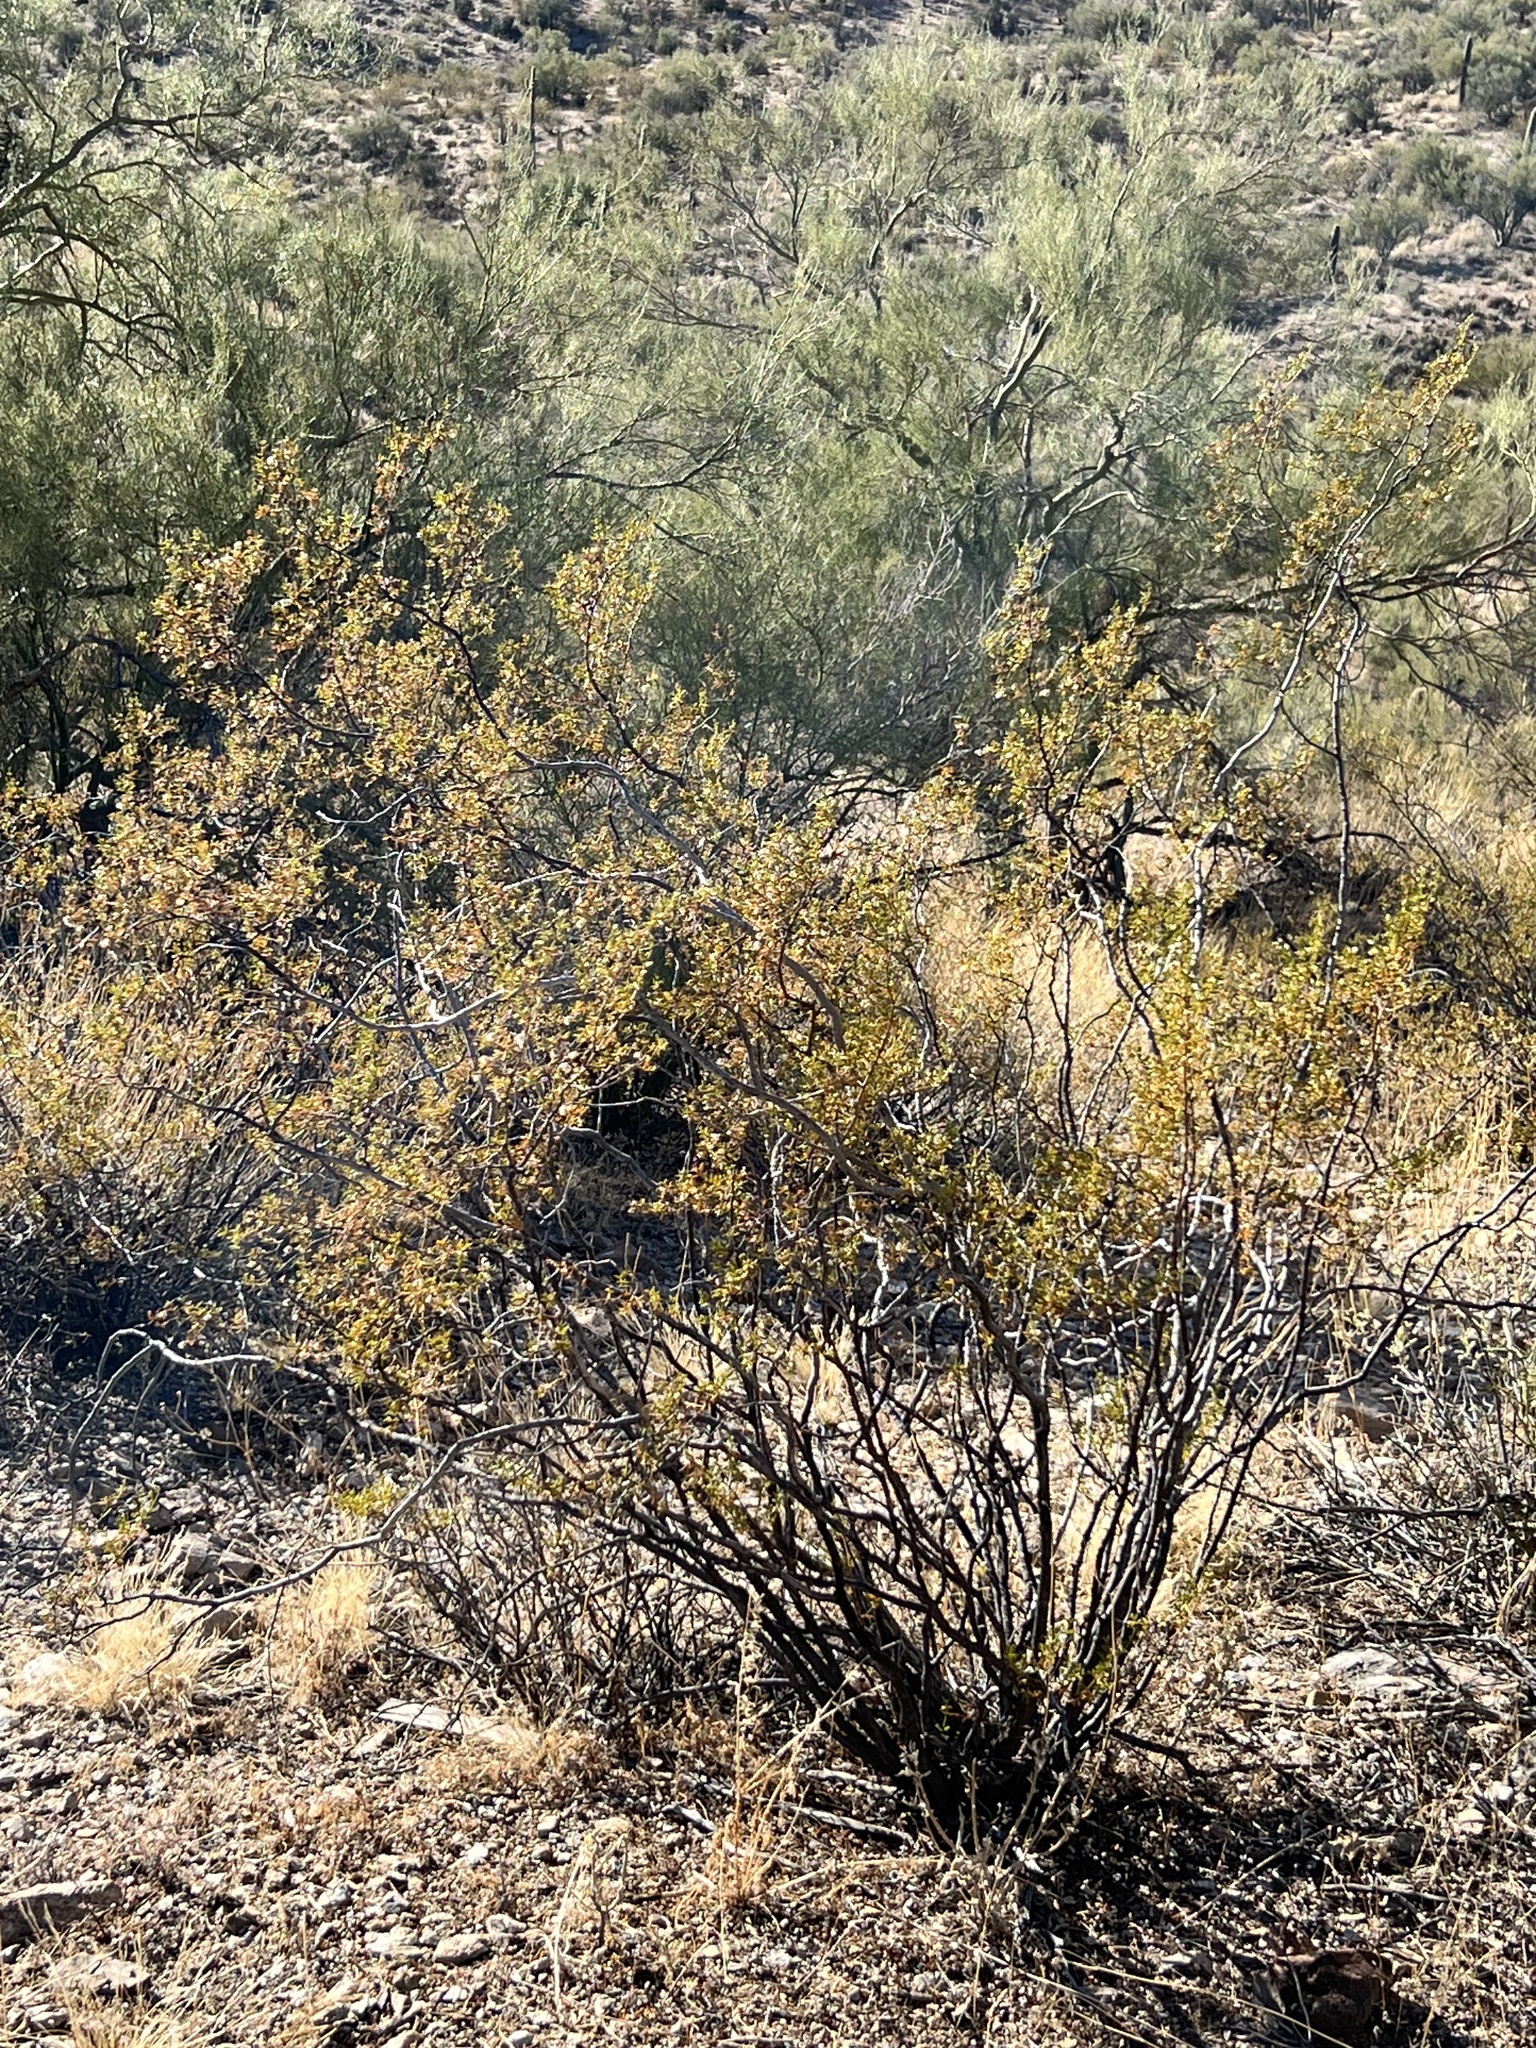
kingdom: Plantae
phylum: Tracheophyta
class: Magnoliopsida
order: Zygophyllales
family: Zygophyllaceae
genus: Larrea
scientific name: Larrea tridentata
